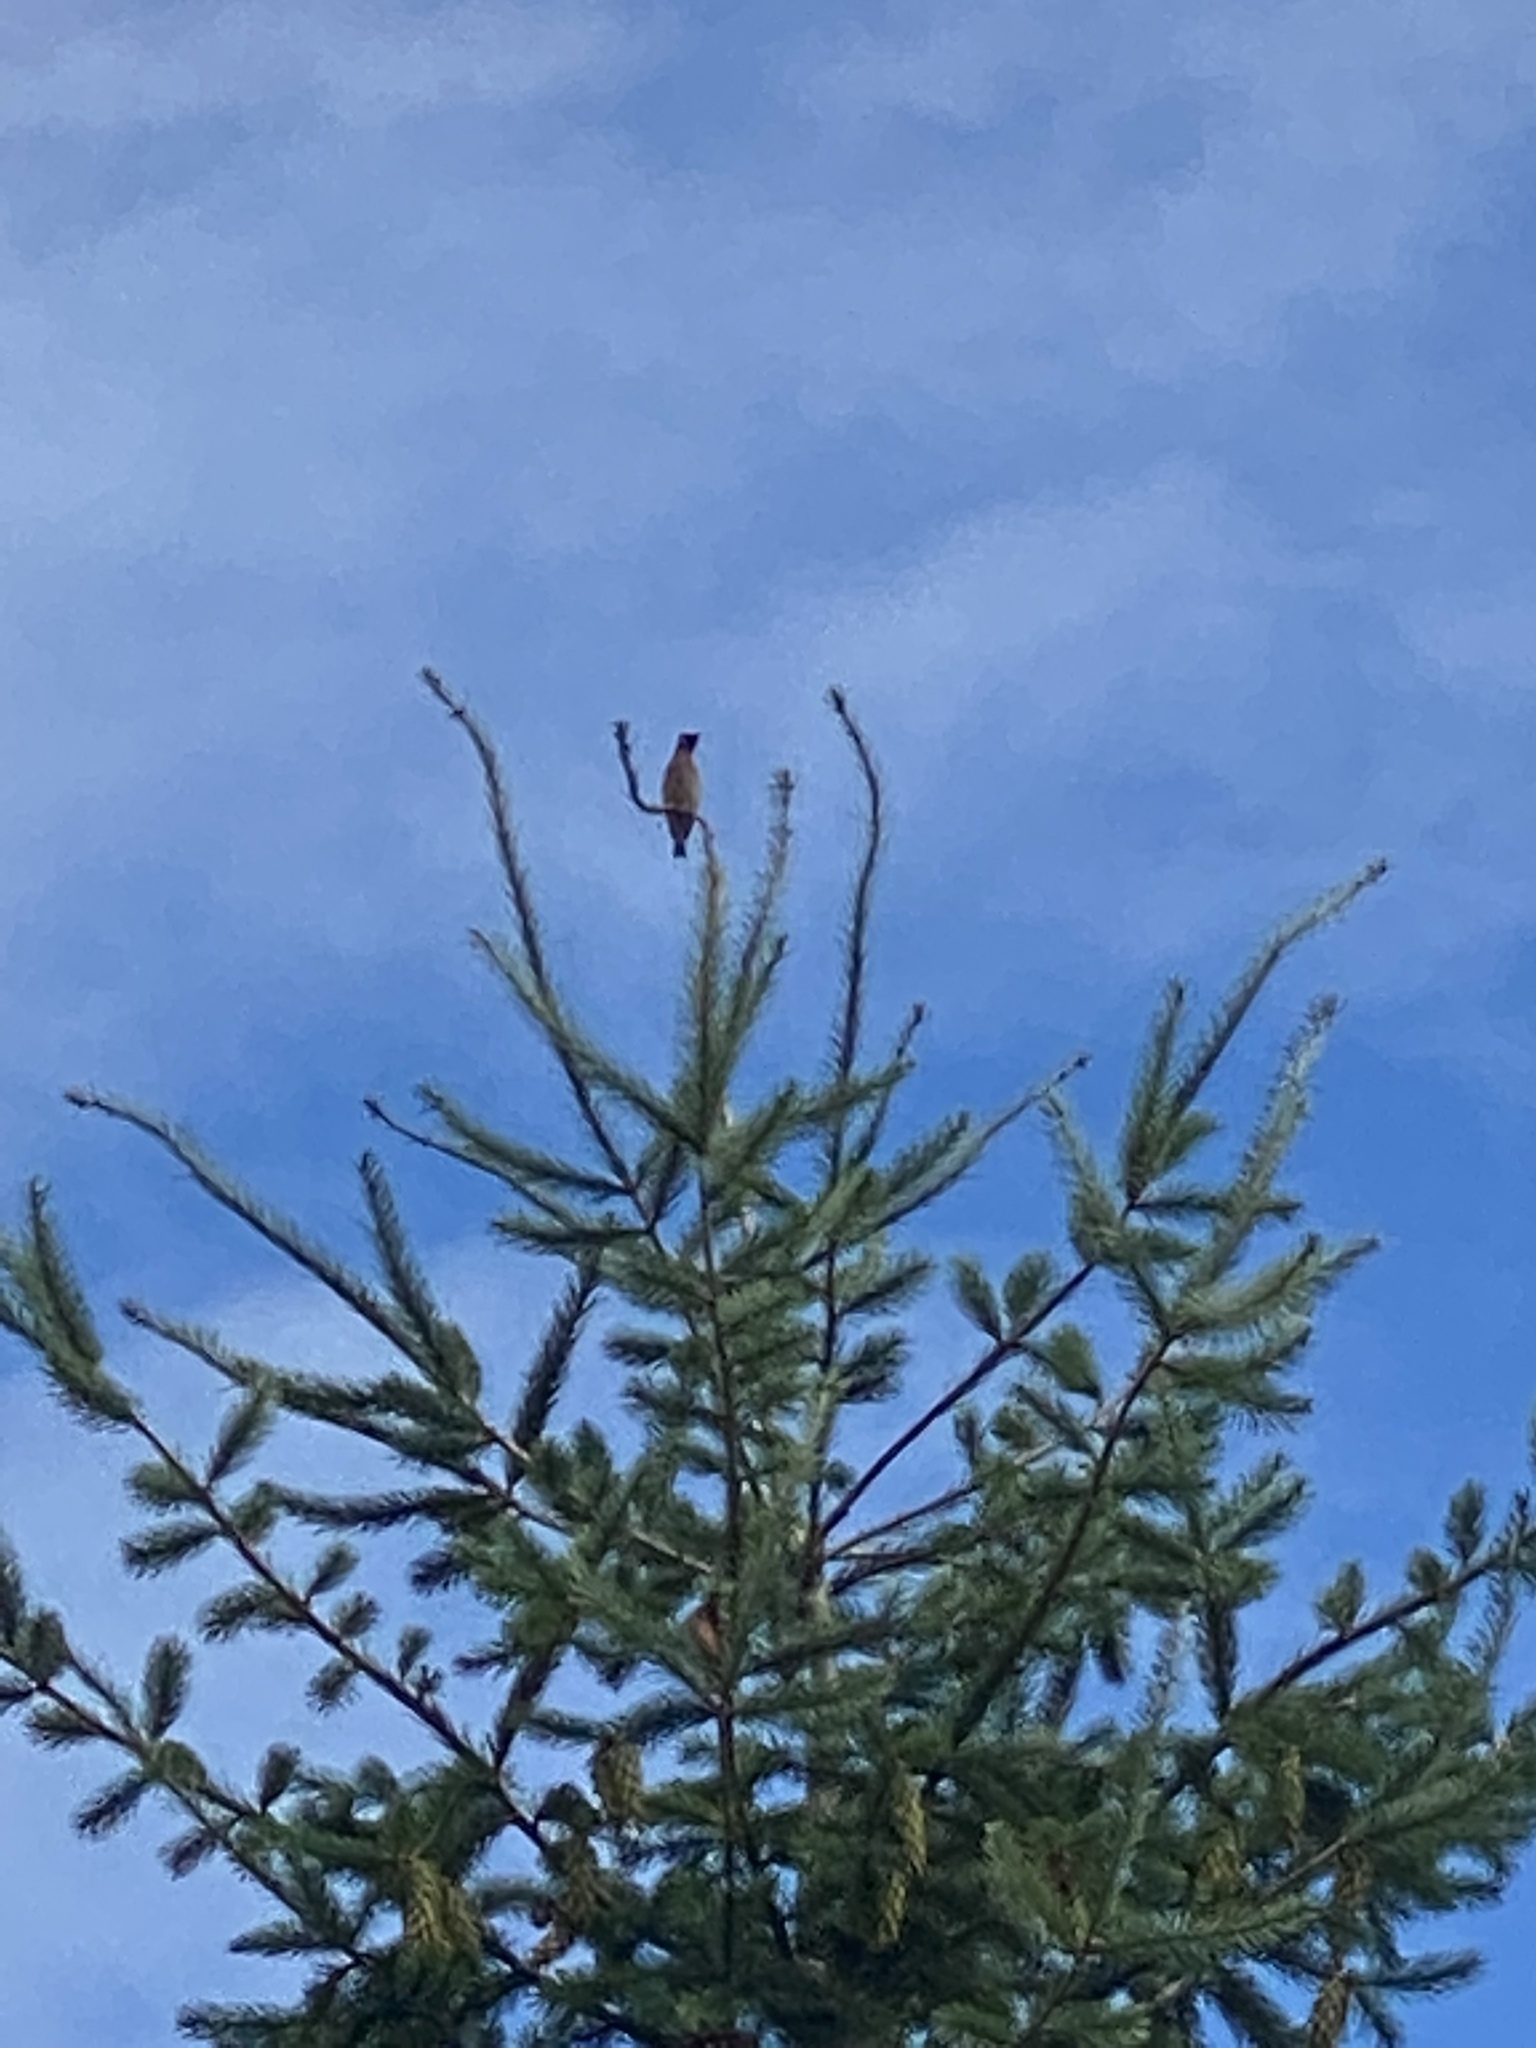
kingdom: Animalia
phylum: Chordata
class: Aves
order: Passeriformes
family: Bombycillidae
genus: Bombycilla
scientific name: Bombycilla cedrorum
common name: Cedar waxwing
